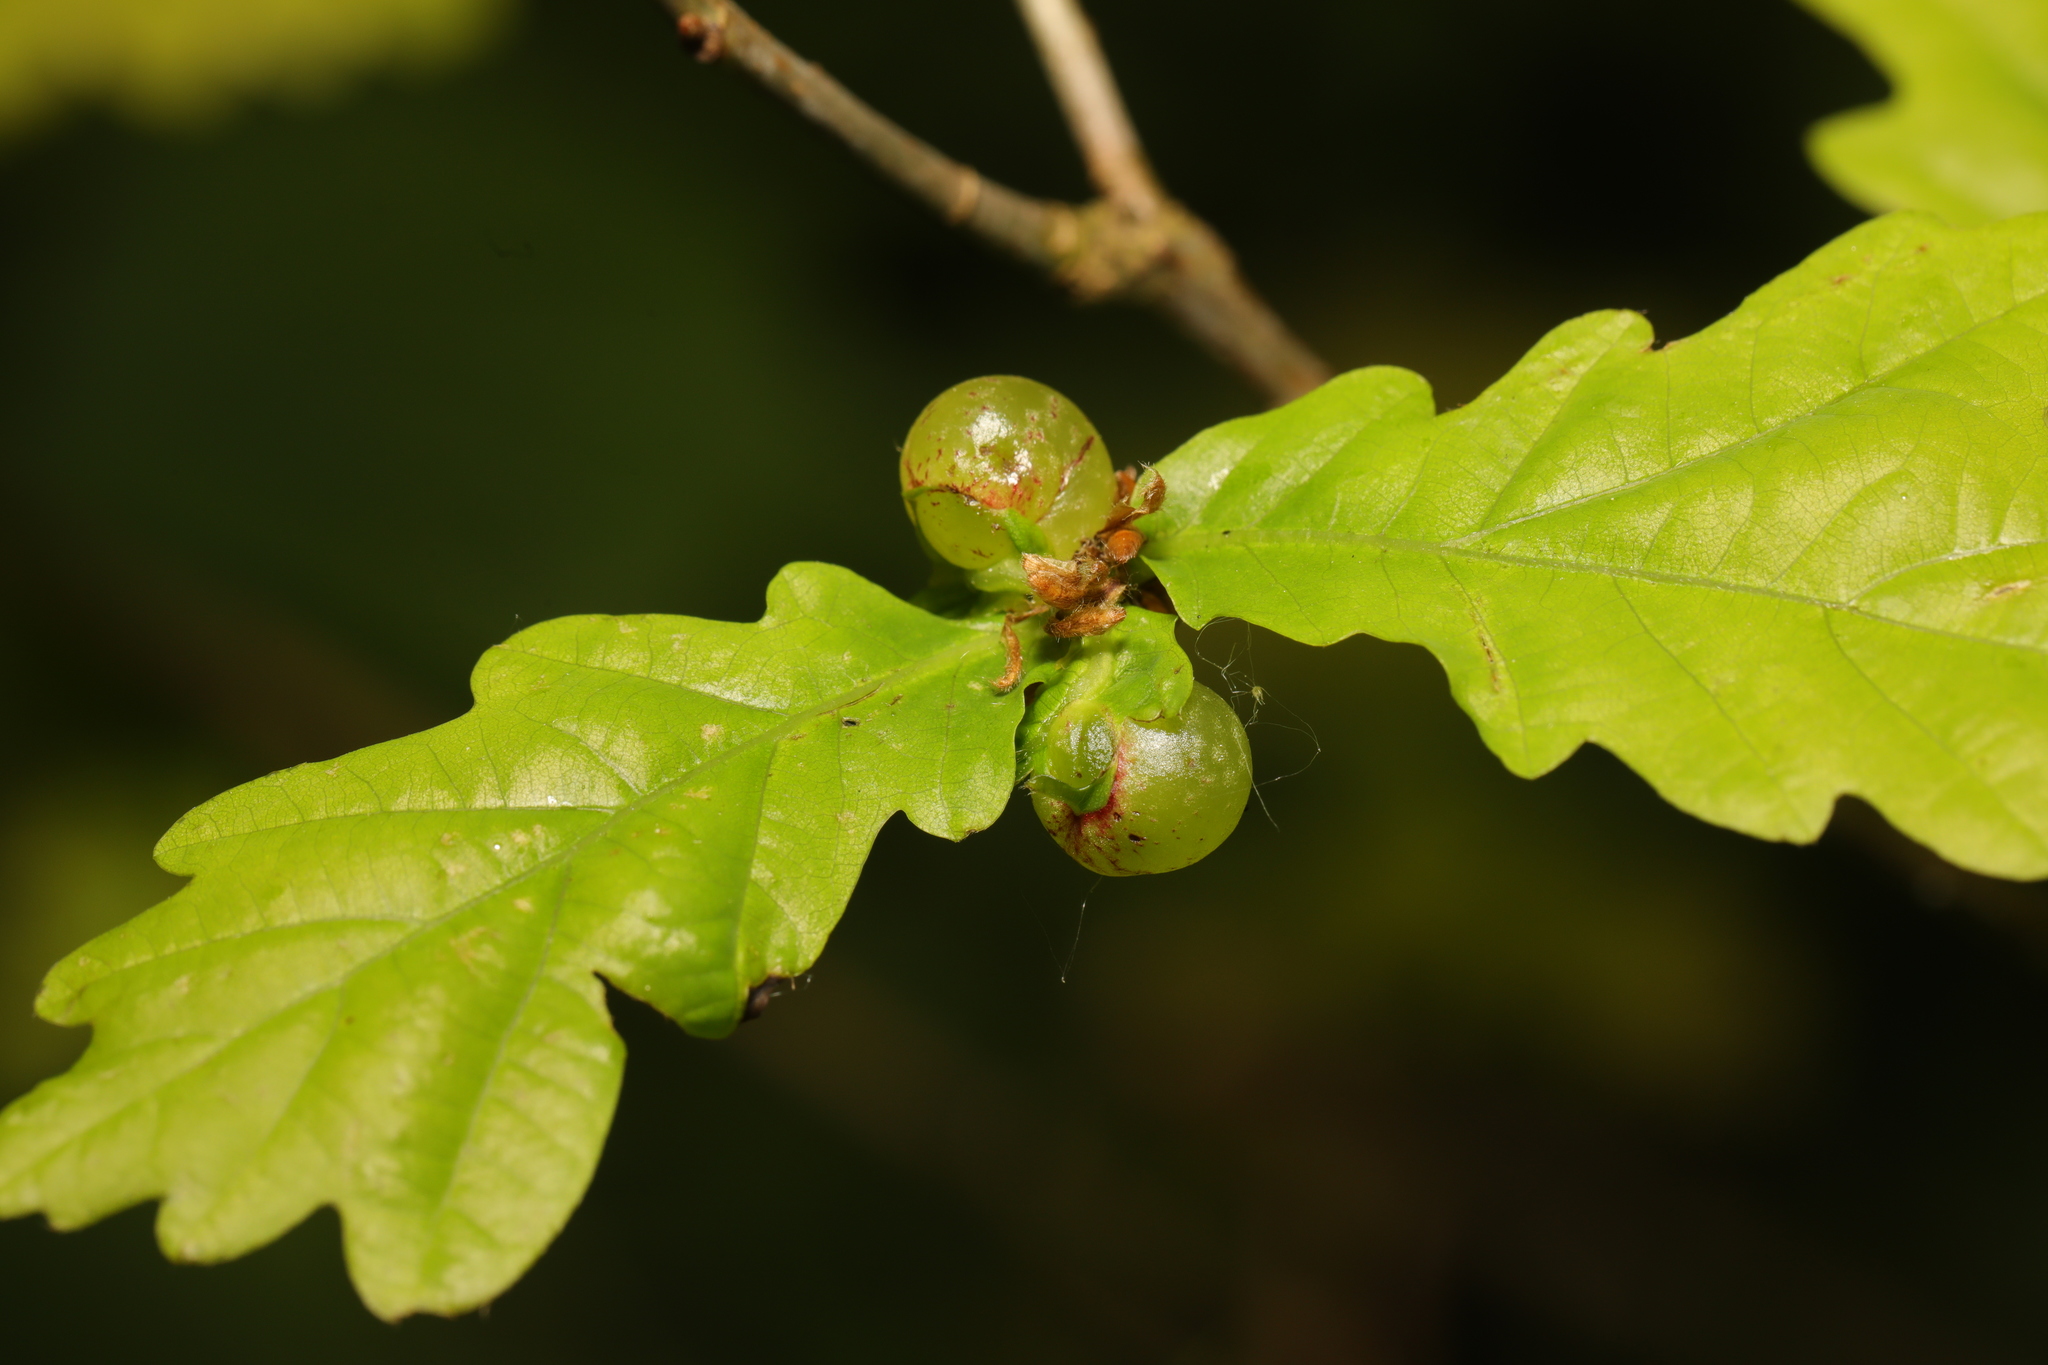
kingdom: Animalia
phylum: Arthropoda
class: Insecta
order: Hymenoptera
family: Cynipidae
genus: Neuroterus
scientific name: Neuroterus quercusbaccarum
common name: Common spangle gall
